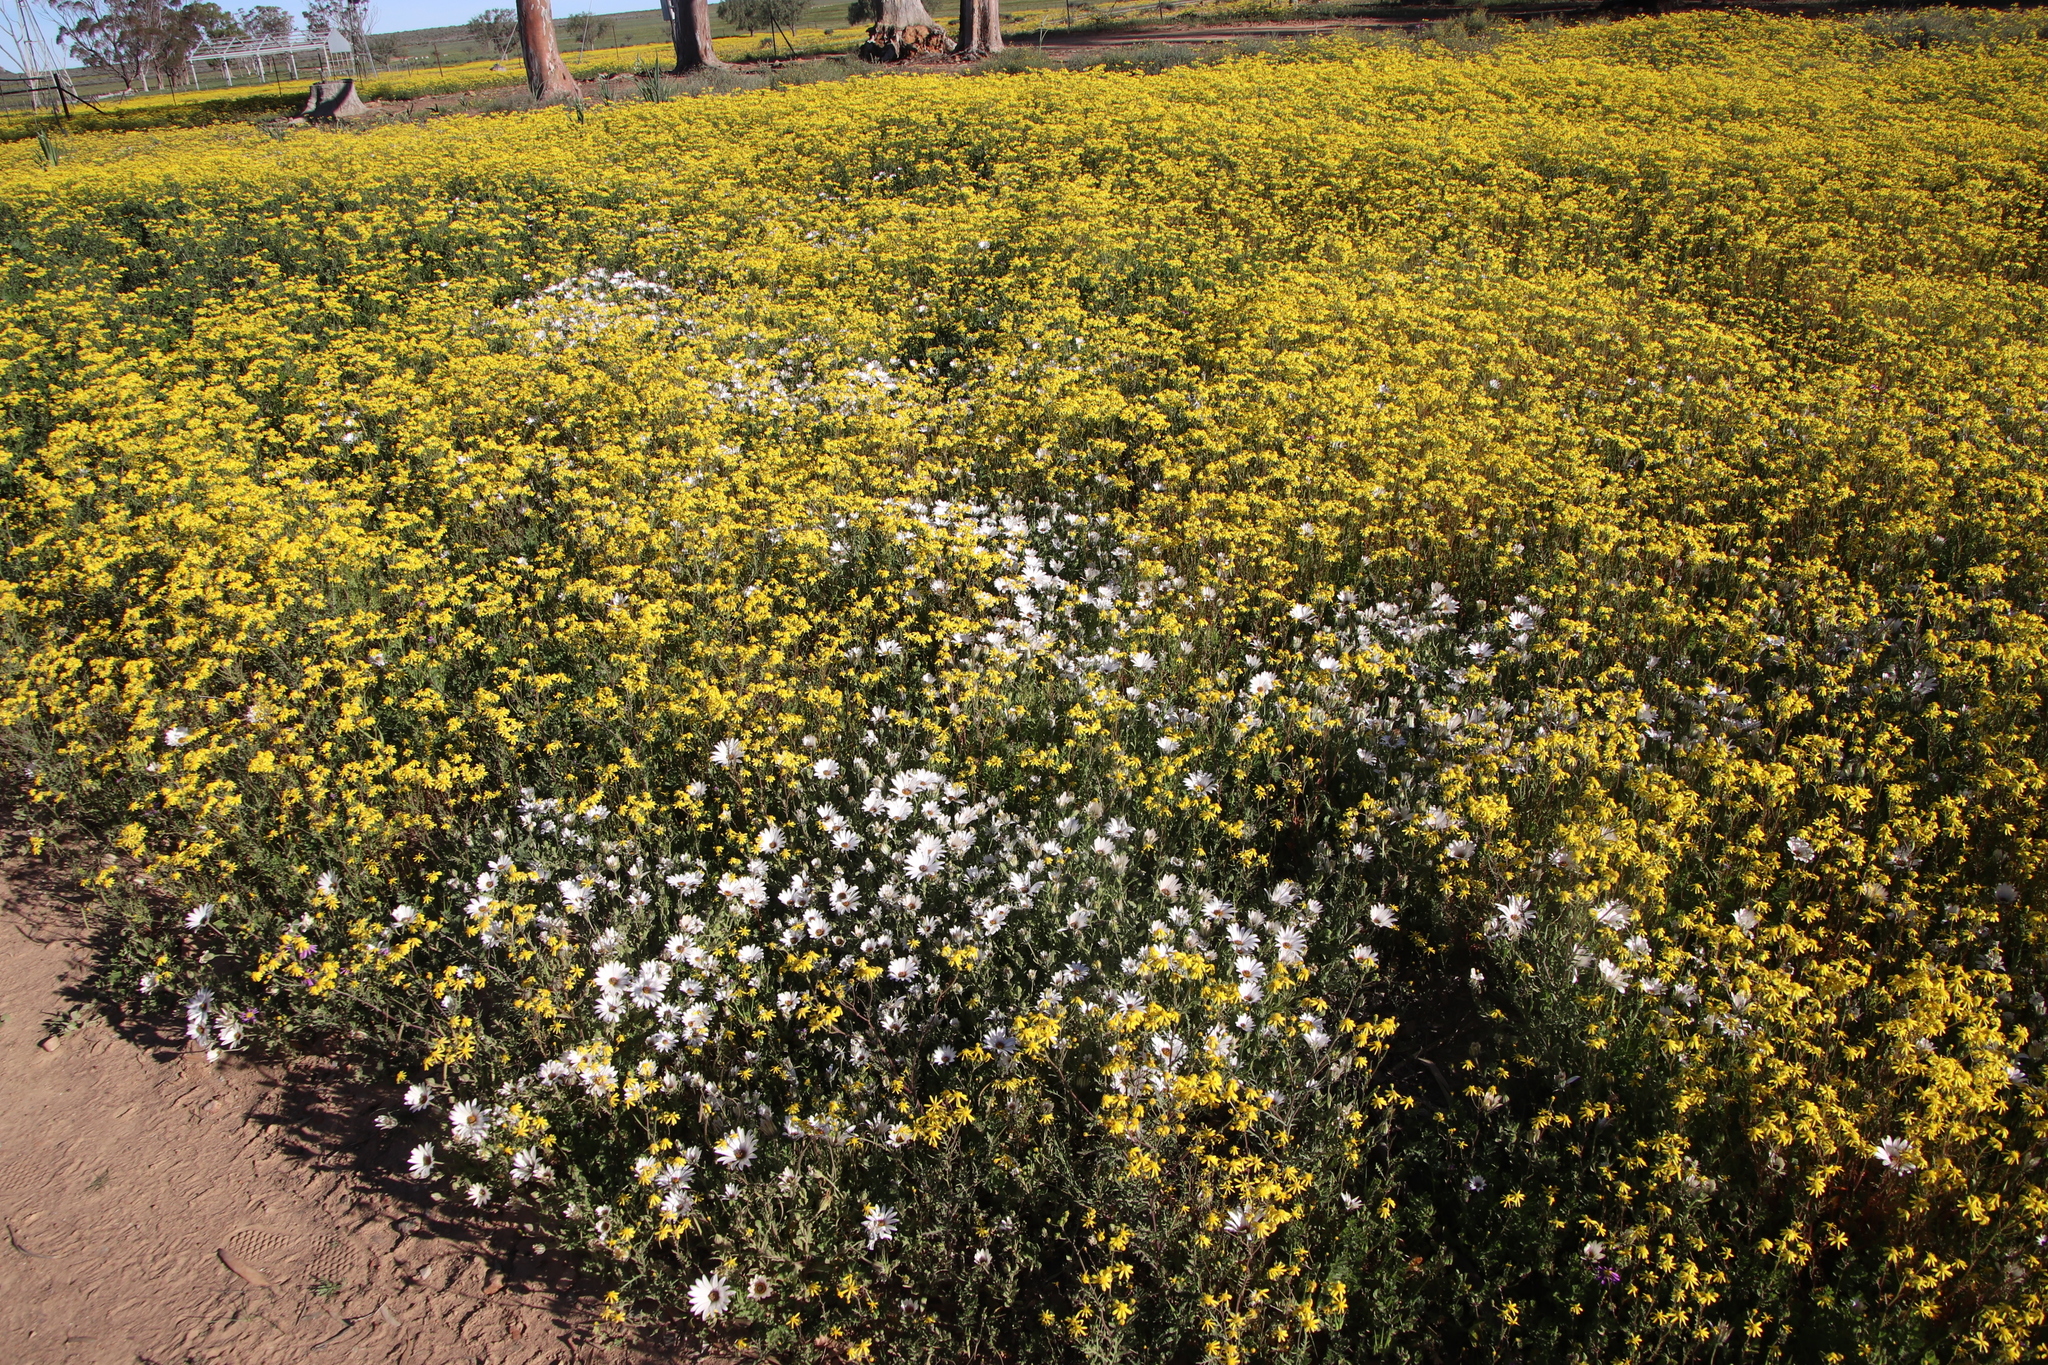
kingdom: Plantae
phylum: Tracheophyta
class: Magnoliopsida
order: Asterales
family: Asteraceae
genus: Senecio
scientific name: Senecio abruptus
